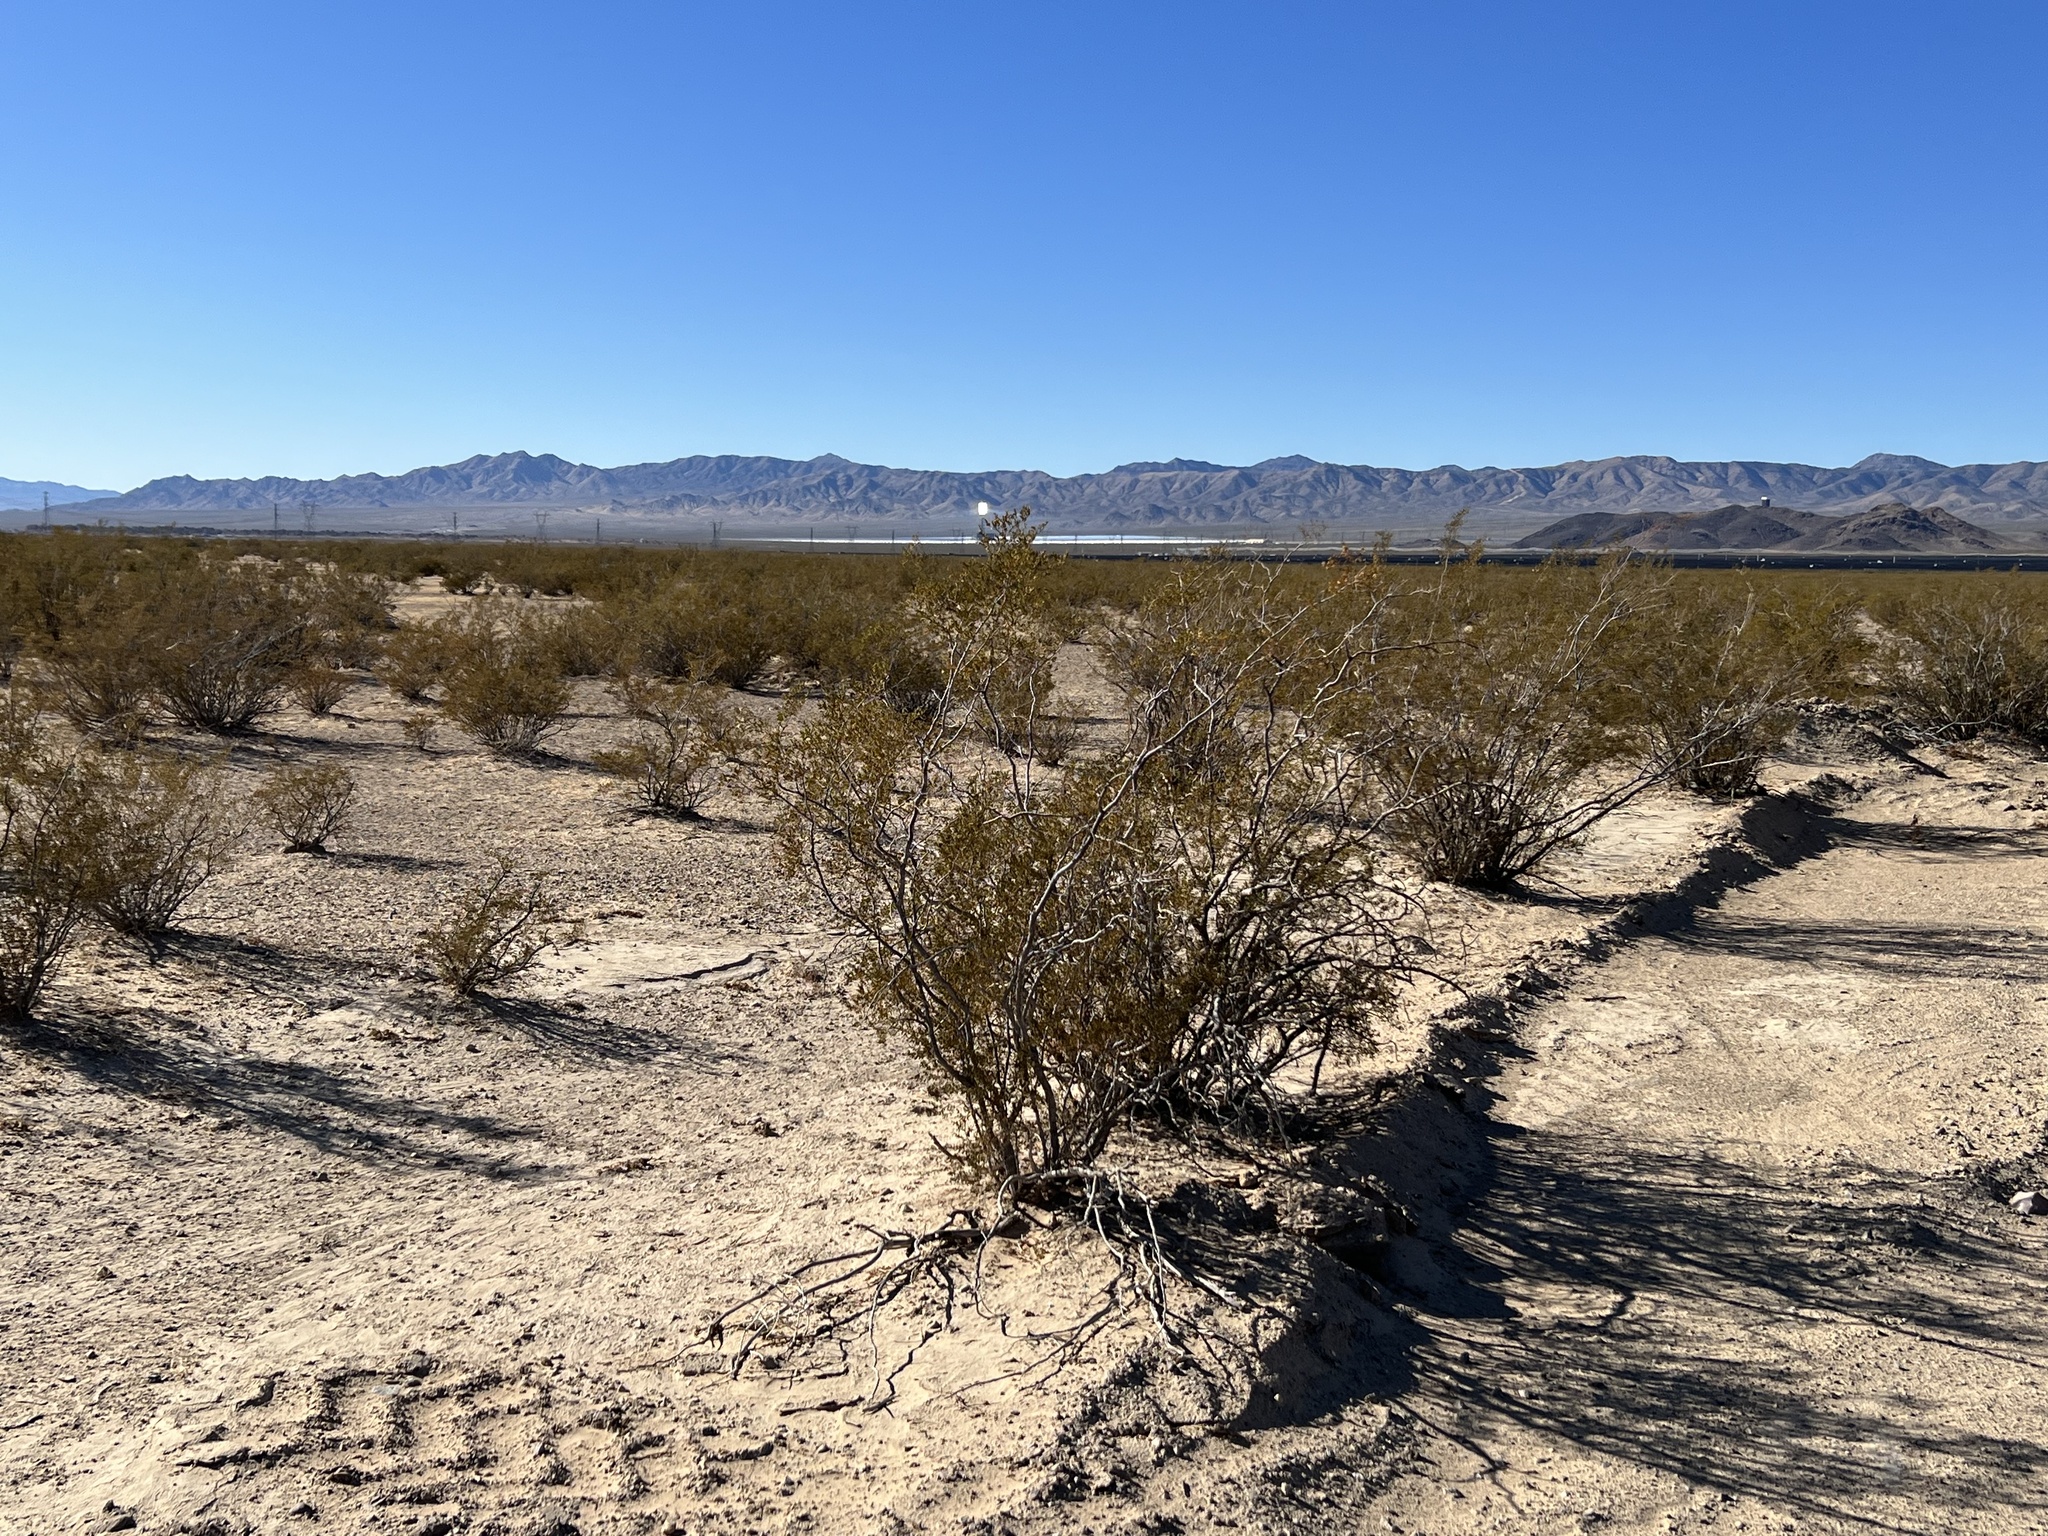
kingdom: Plantae
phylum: Tracheophyta
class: Magnoliopsida
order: Zygophyllales
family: Zygophyllaceae
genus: Larrea
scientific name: Larrea tridentata
